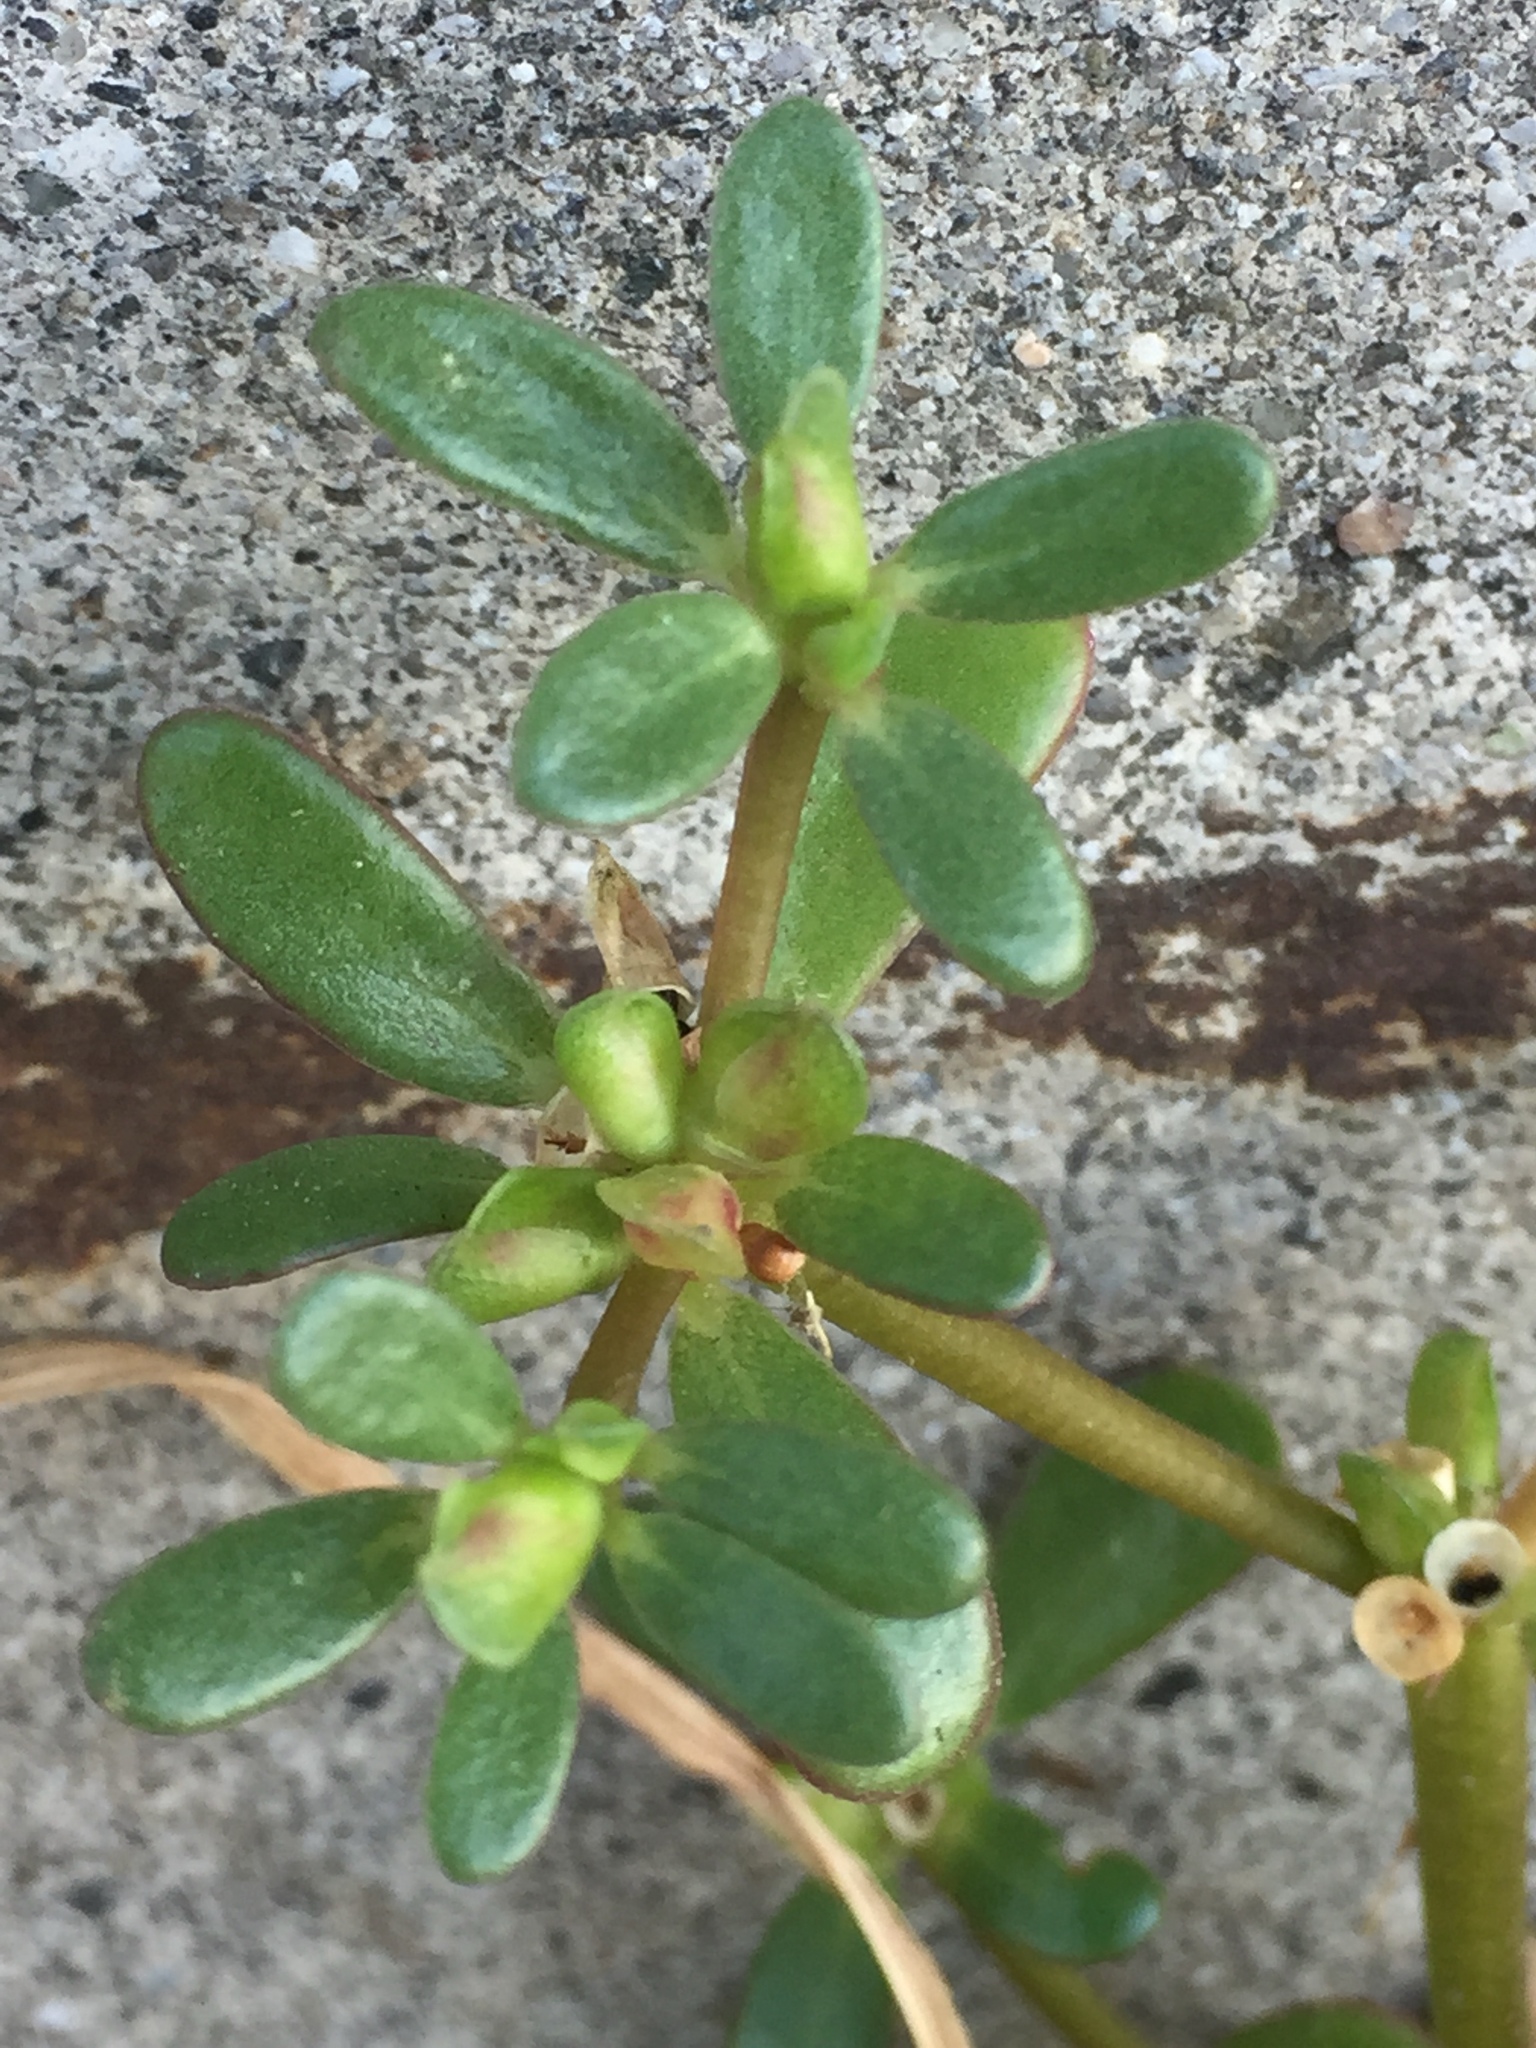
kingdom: Plantae
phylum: Tracheophyta
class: Magnoliopsida
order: Caryophyllales
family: Portulacaceae
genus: Portulaca
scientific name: Portulaca oleracea
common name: Common purslane
